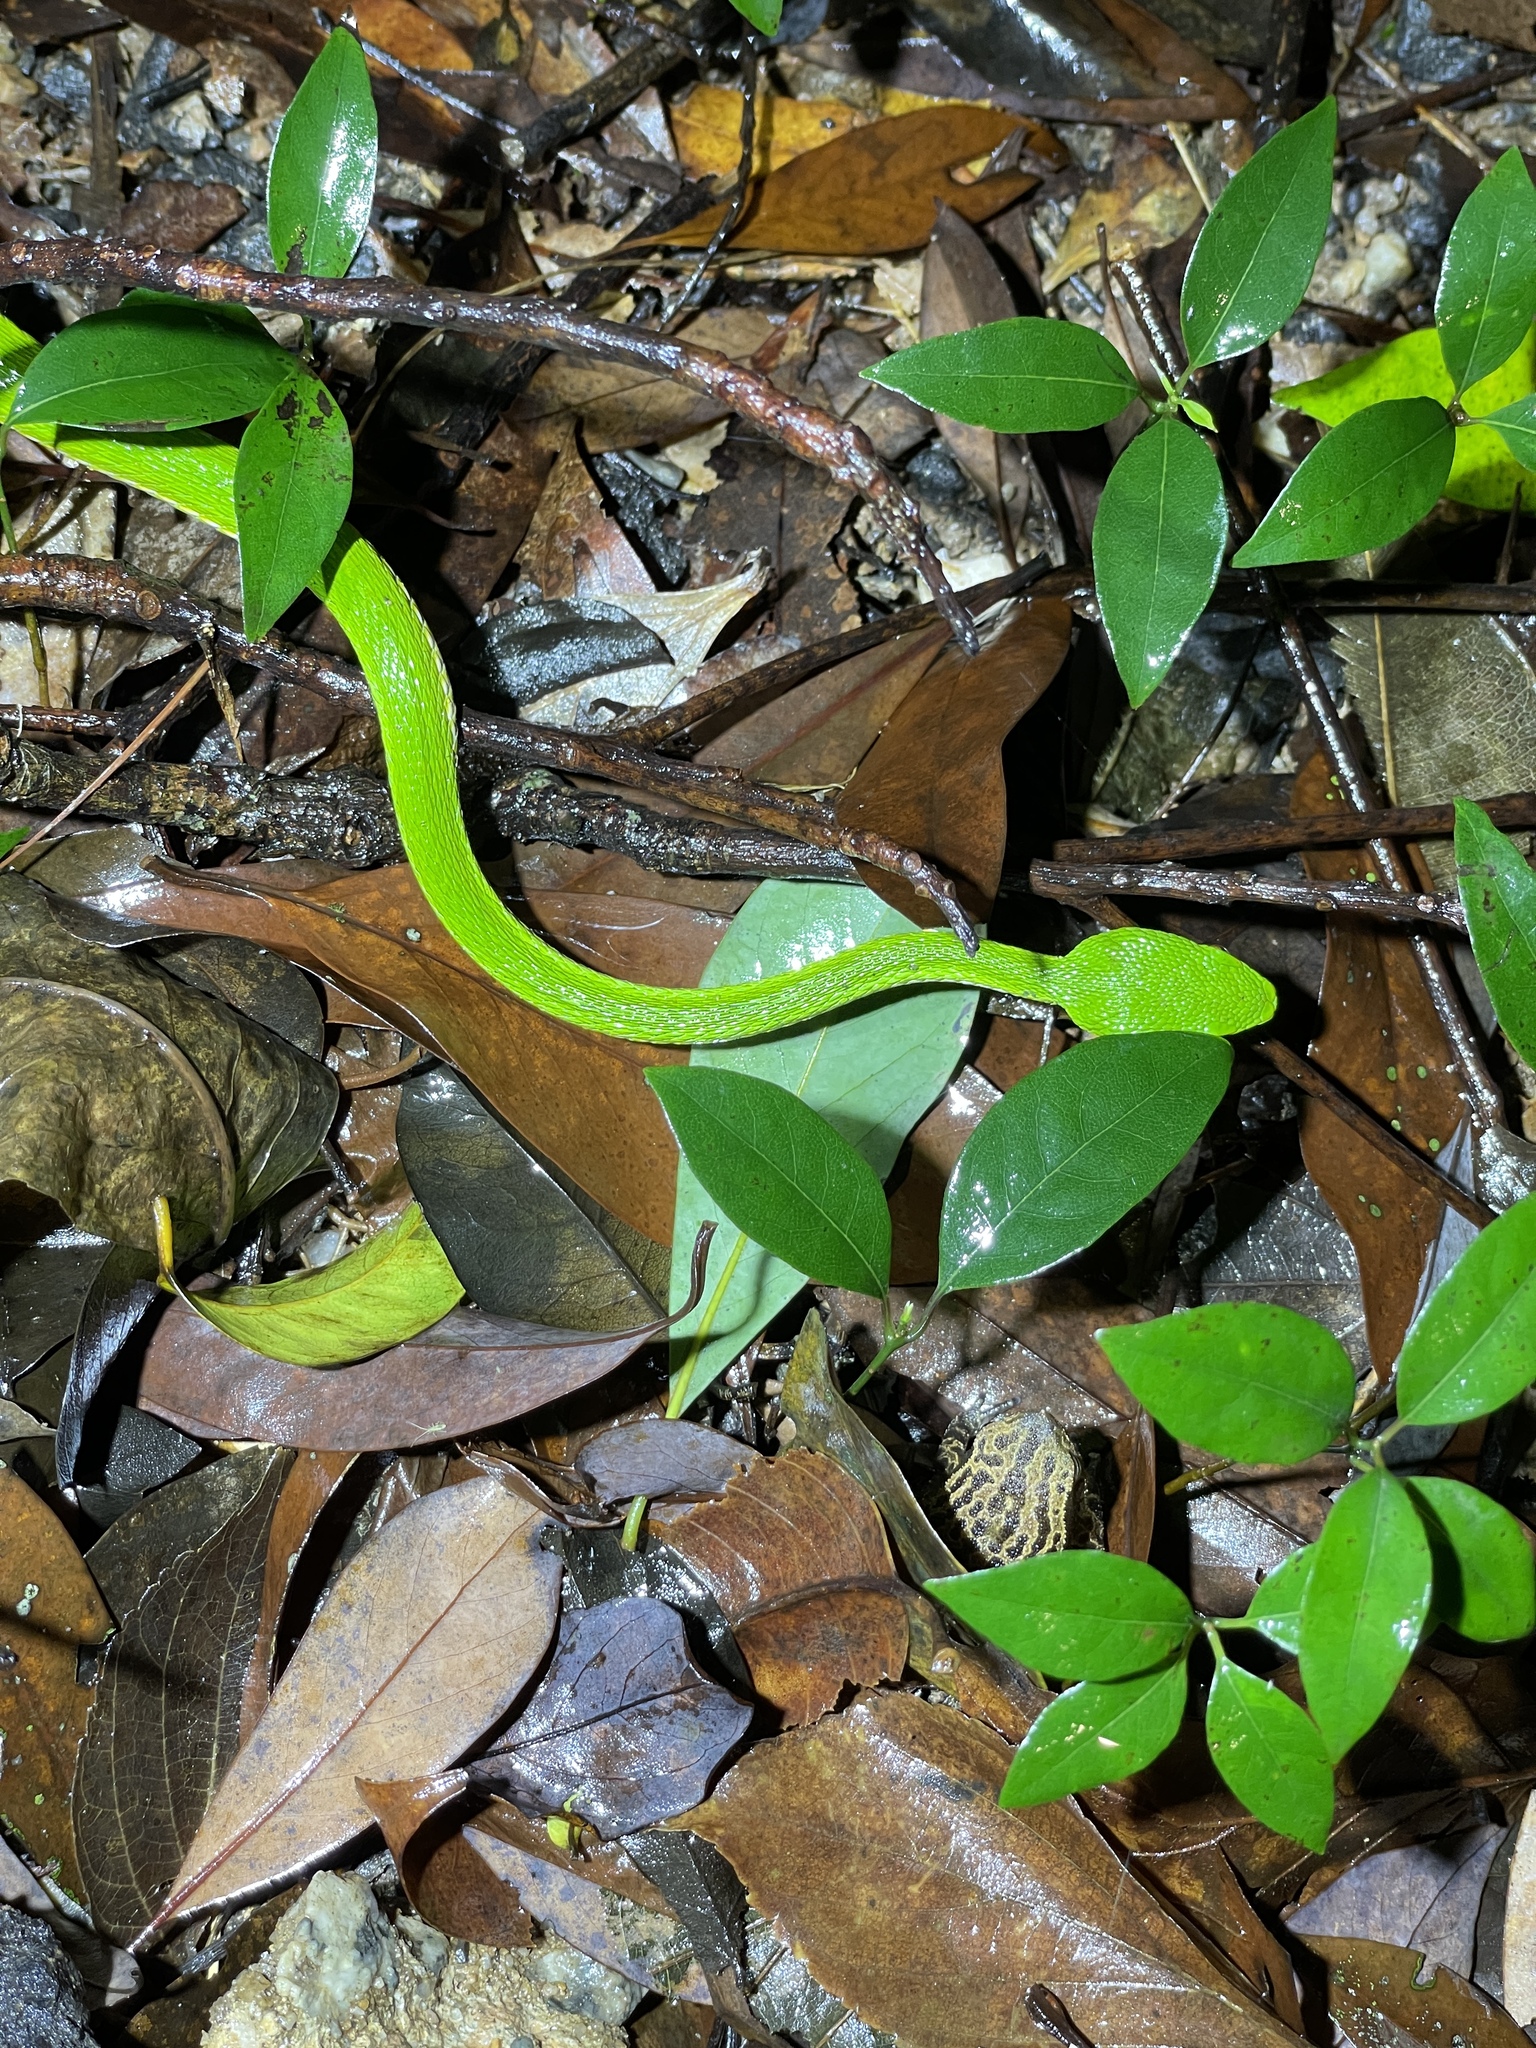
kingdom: Animalia
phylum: Chordata
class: Squamata
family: Viperidae
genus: Trimeresurus
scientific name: Trimeresurus albolabris
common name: White-lipped pitviper
